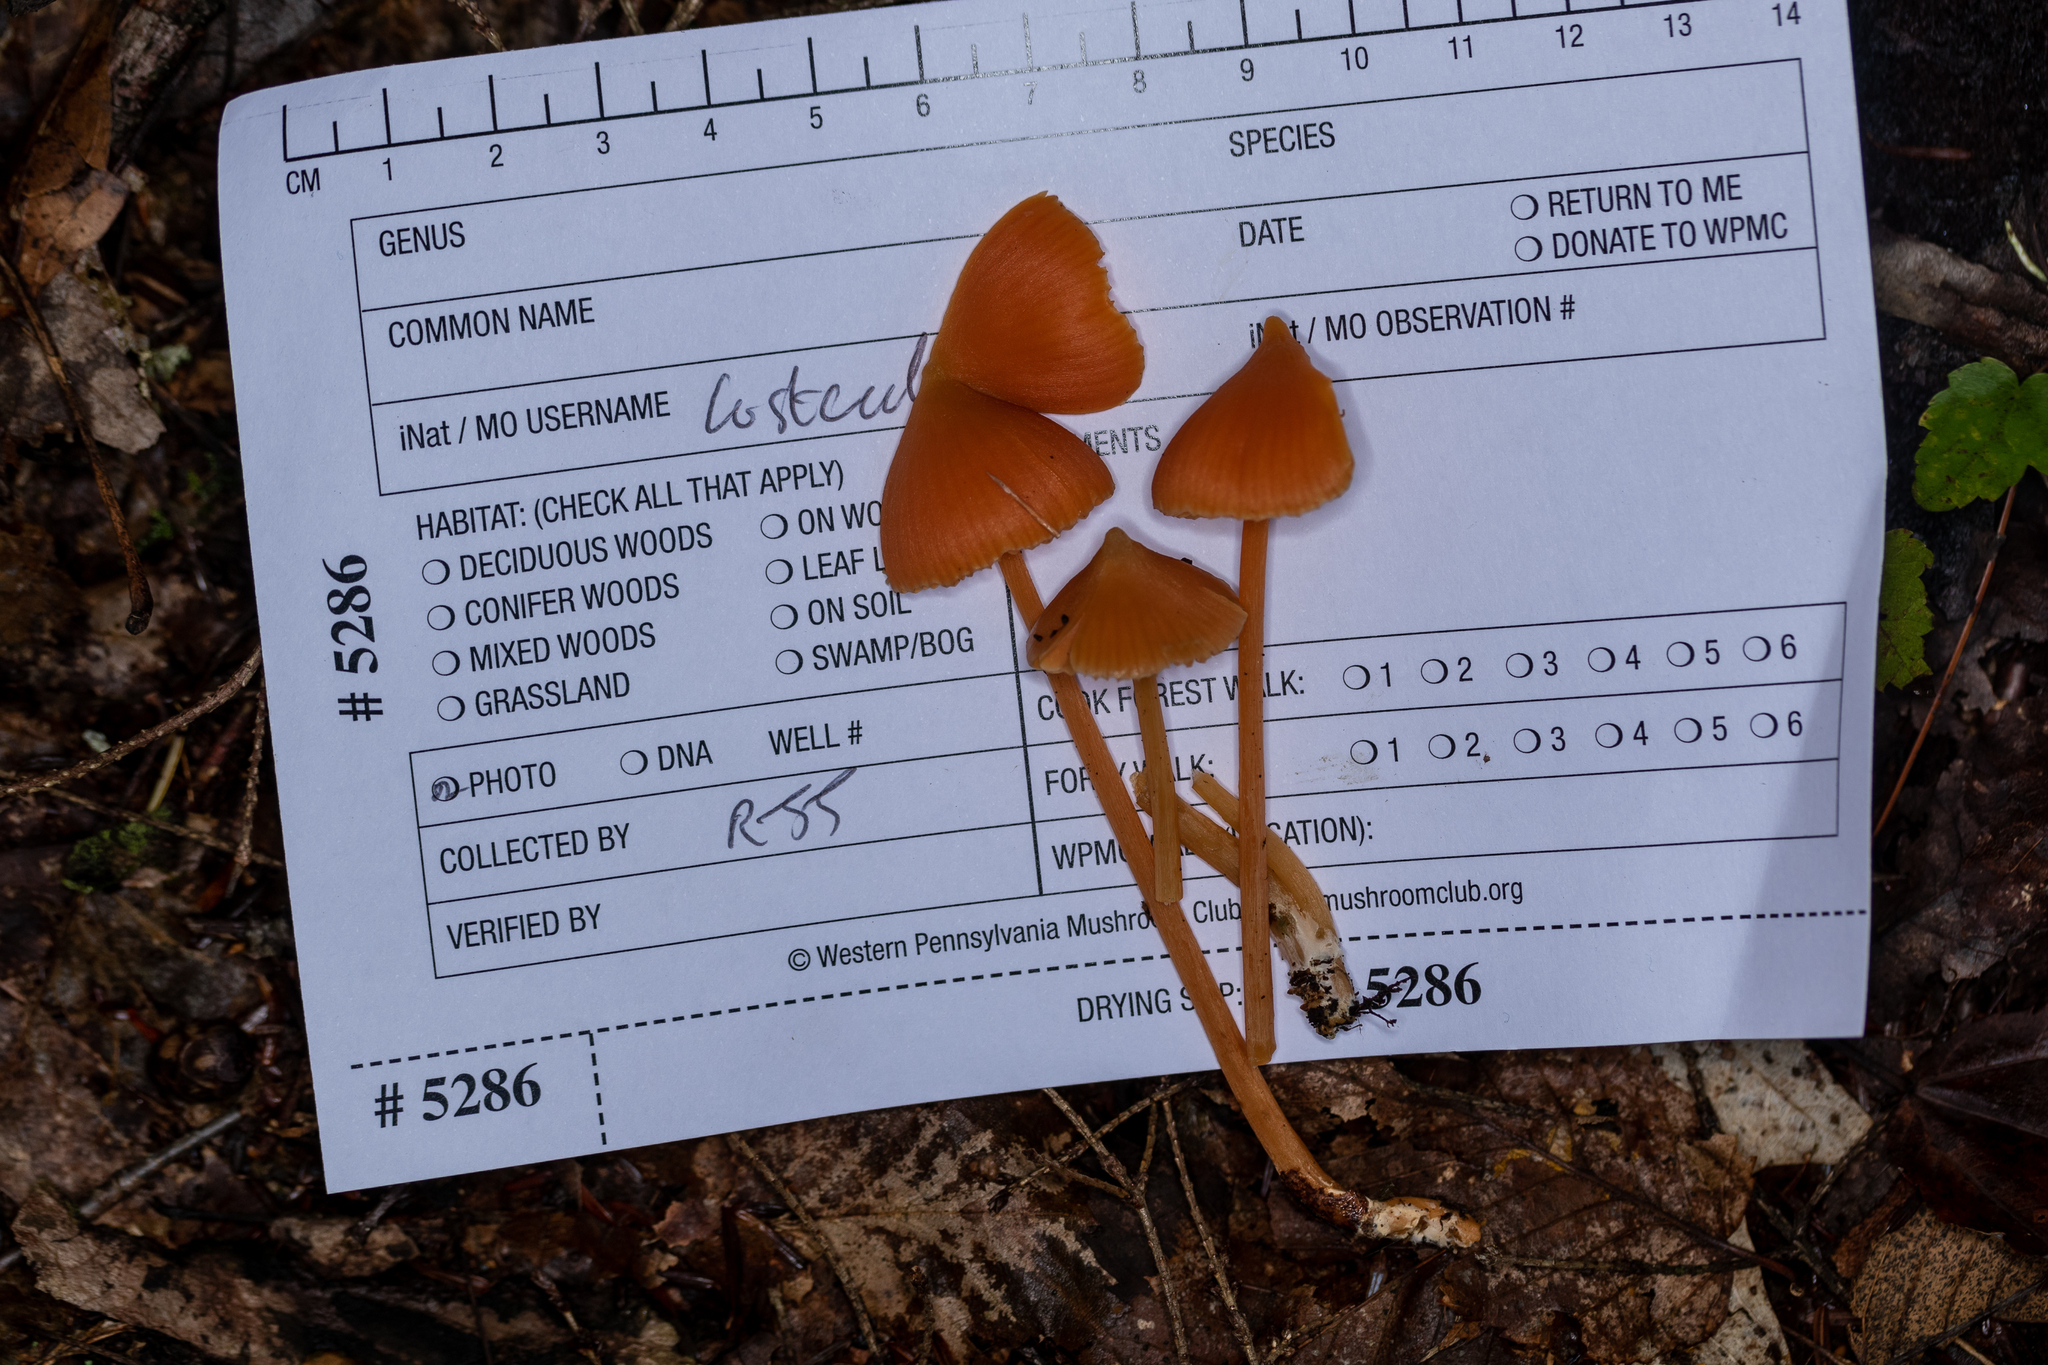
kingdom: Fungi
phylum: Basidiomycota
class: Agaricomycetes
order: Agaricales
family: Entolomataceae
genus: Entoloma
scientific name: Entoloma quadratum
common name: Salmon pinkgill
